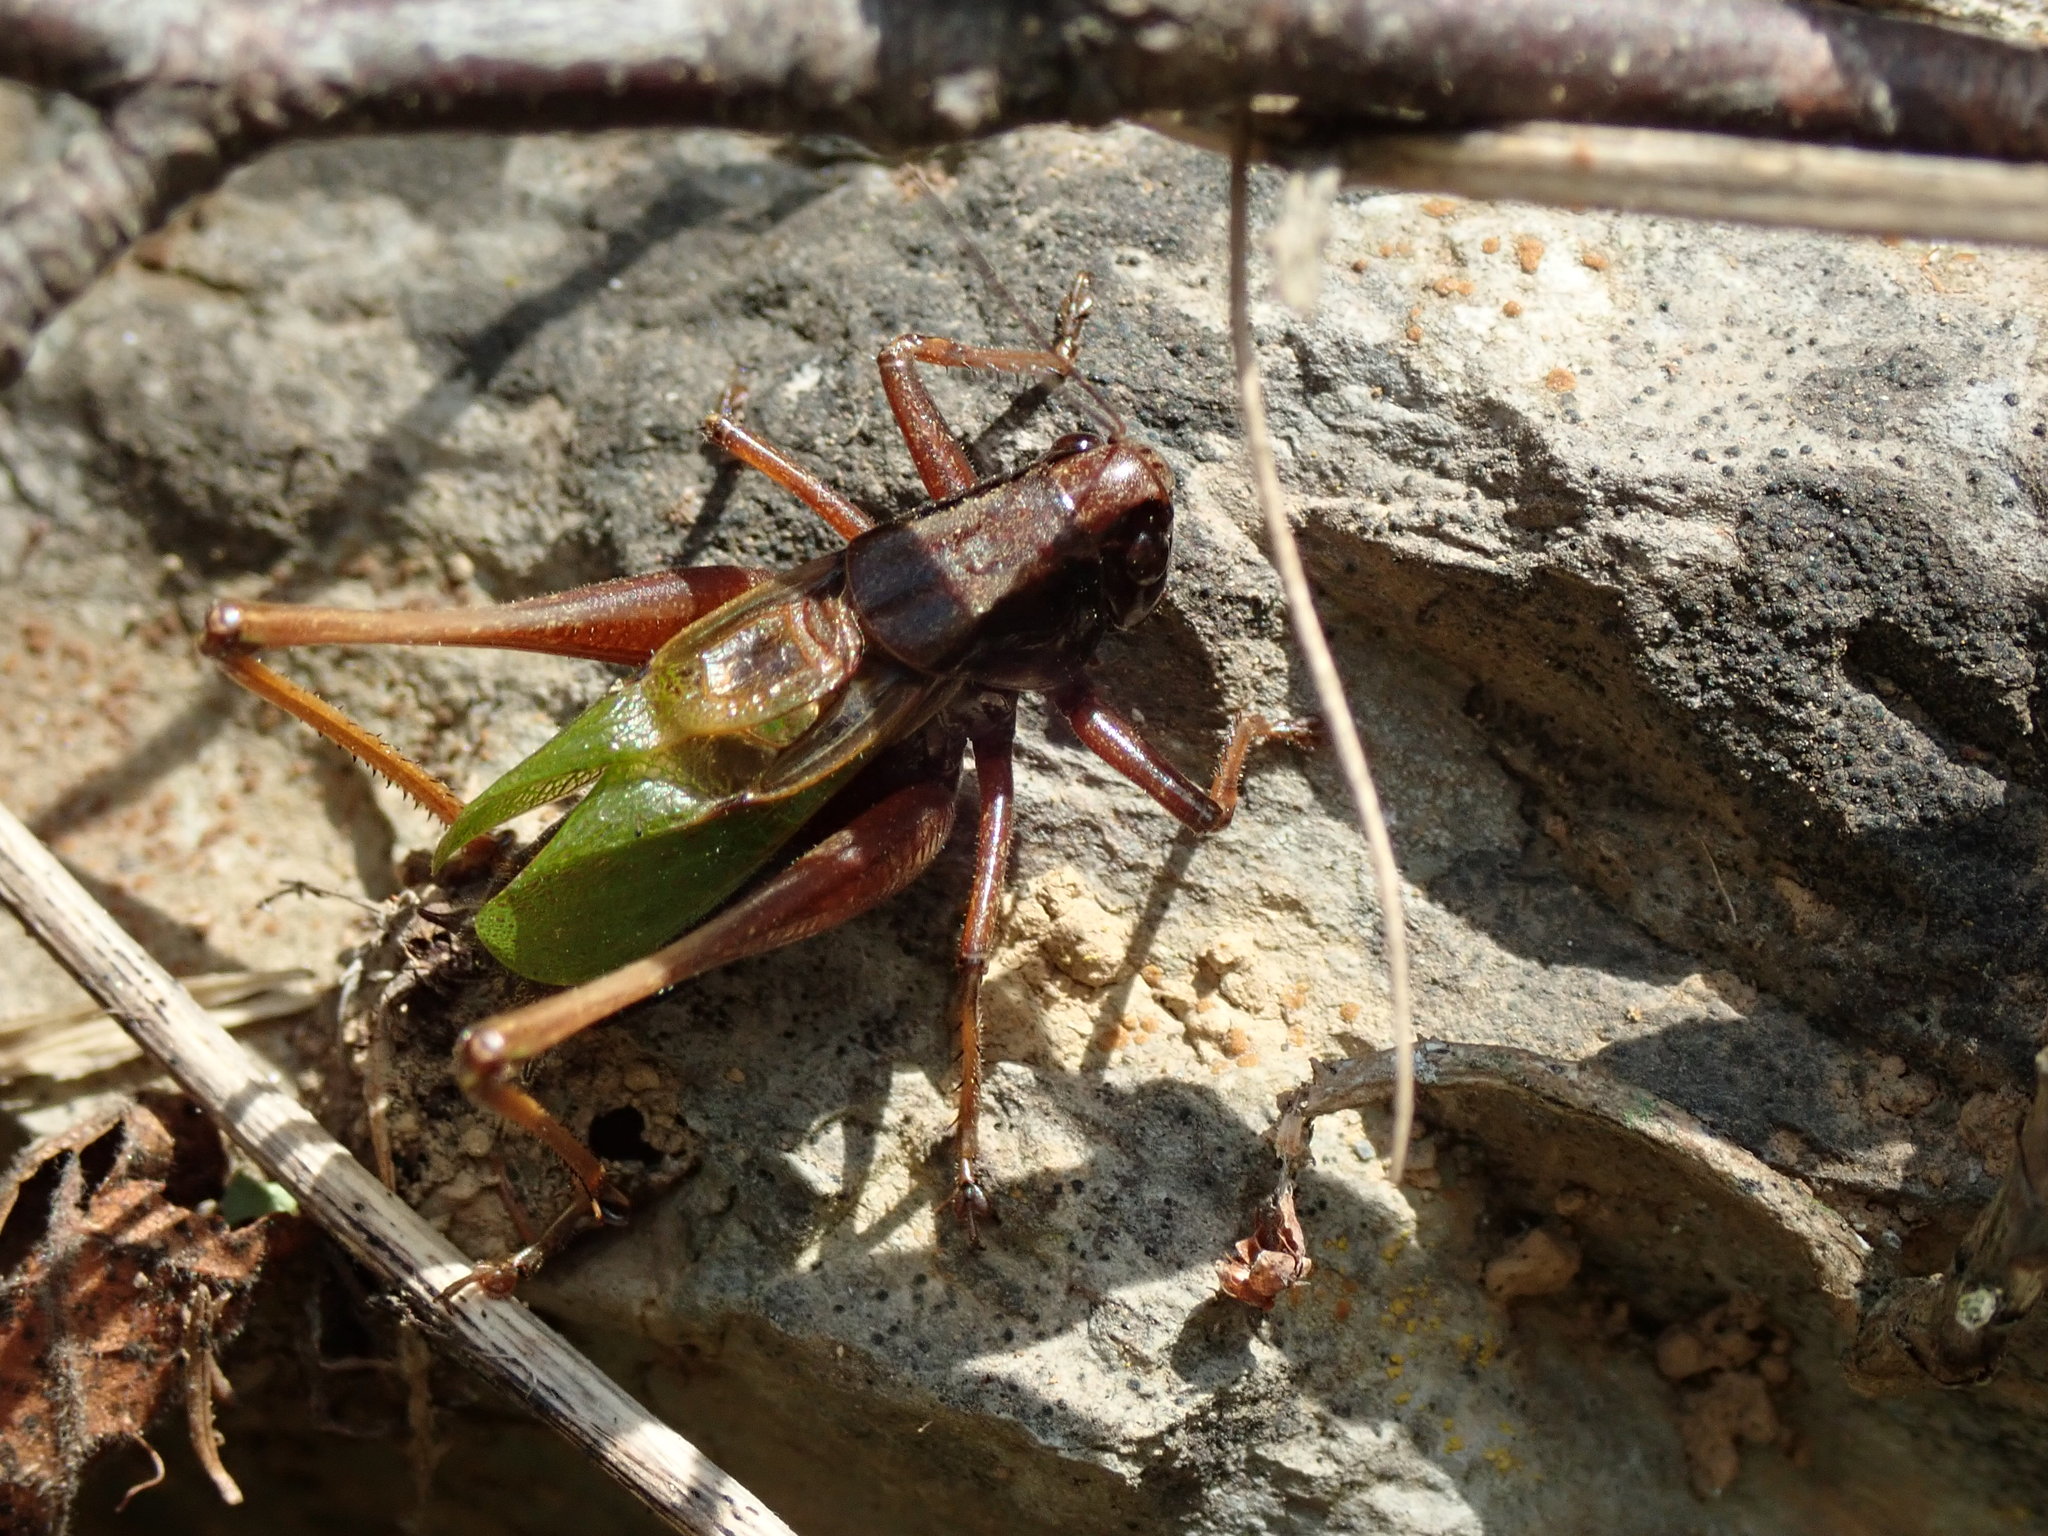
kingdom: Animalia
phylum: Arthropoda
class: Insecta
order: Orthoptera
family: Tettigoniidae
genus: Zeuneriana
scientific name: Zeuneriana abbreviata
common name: Basque bush-cricket
